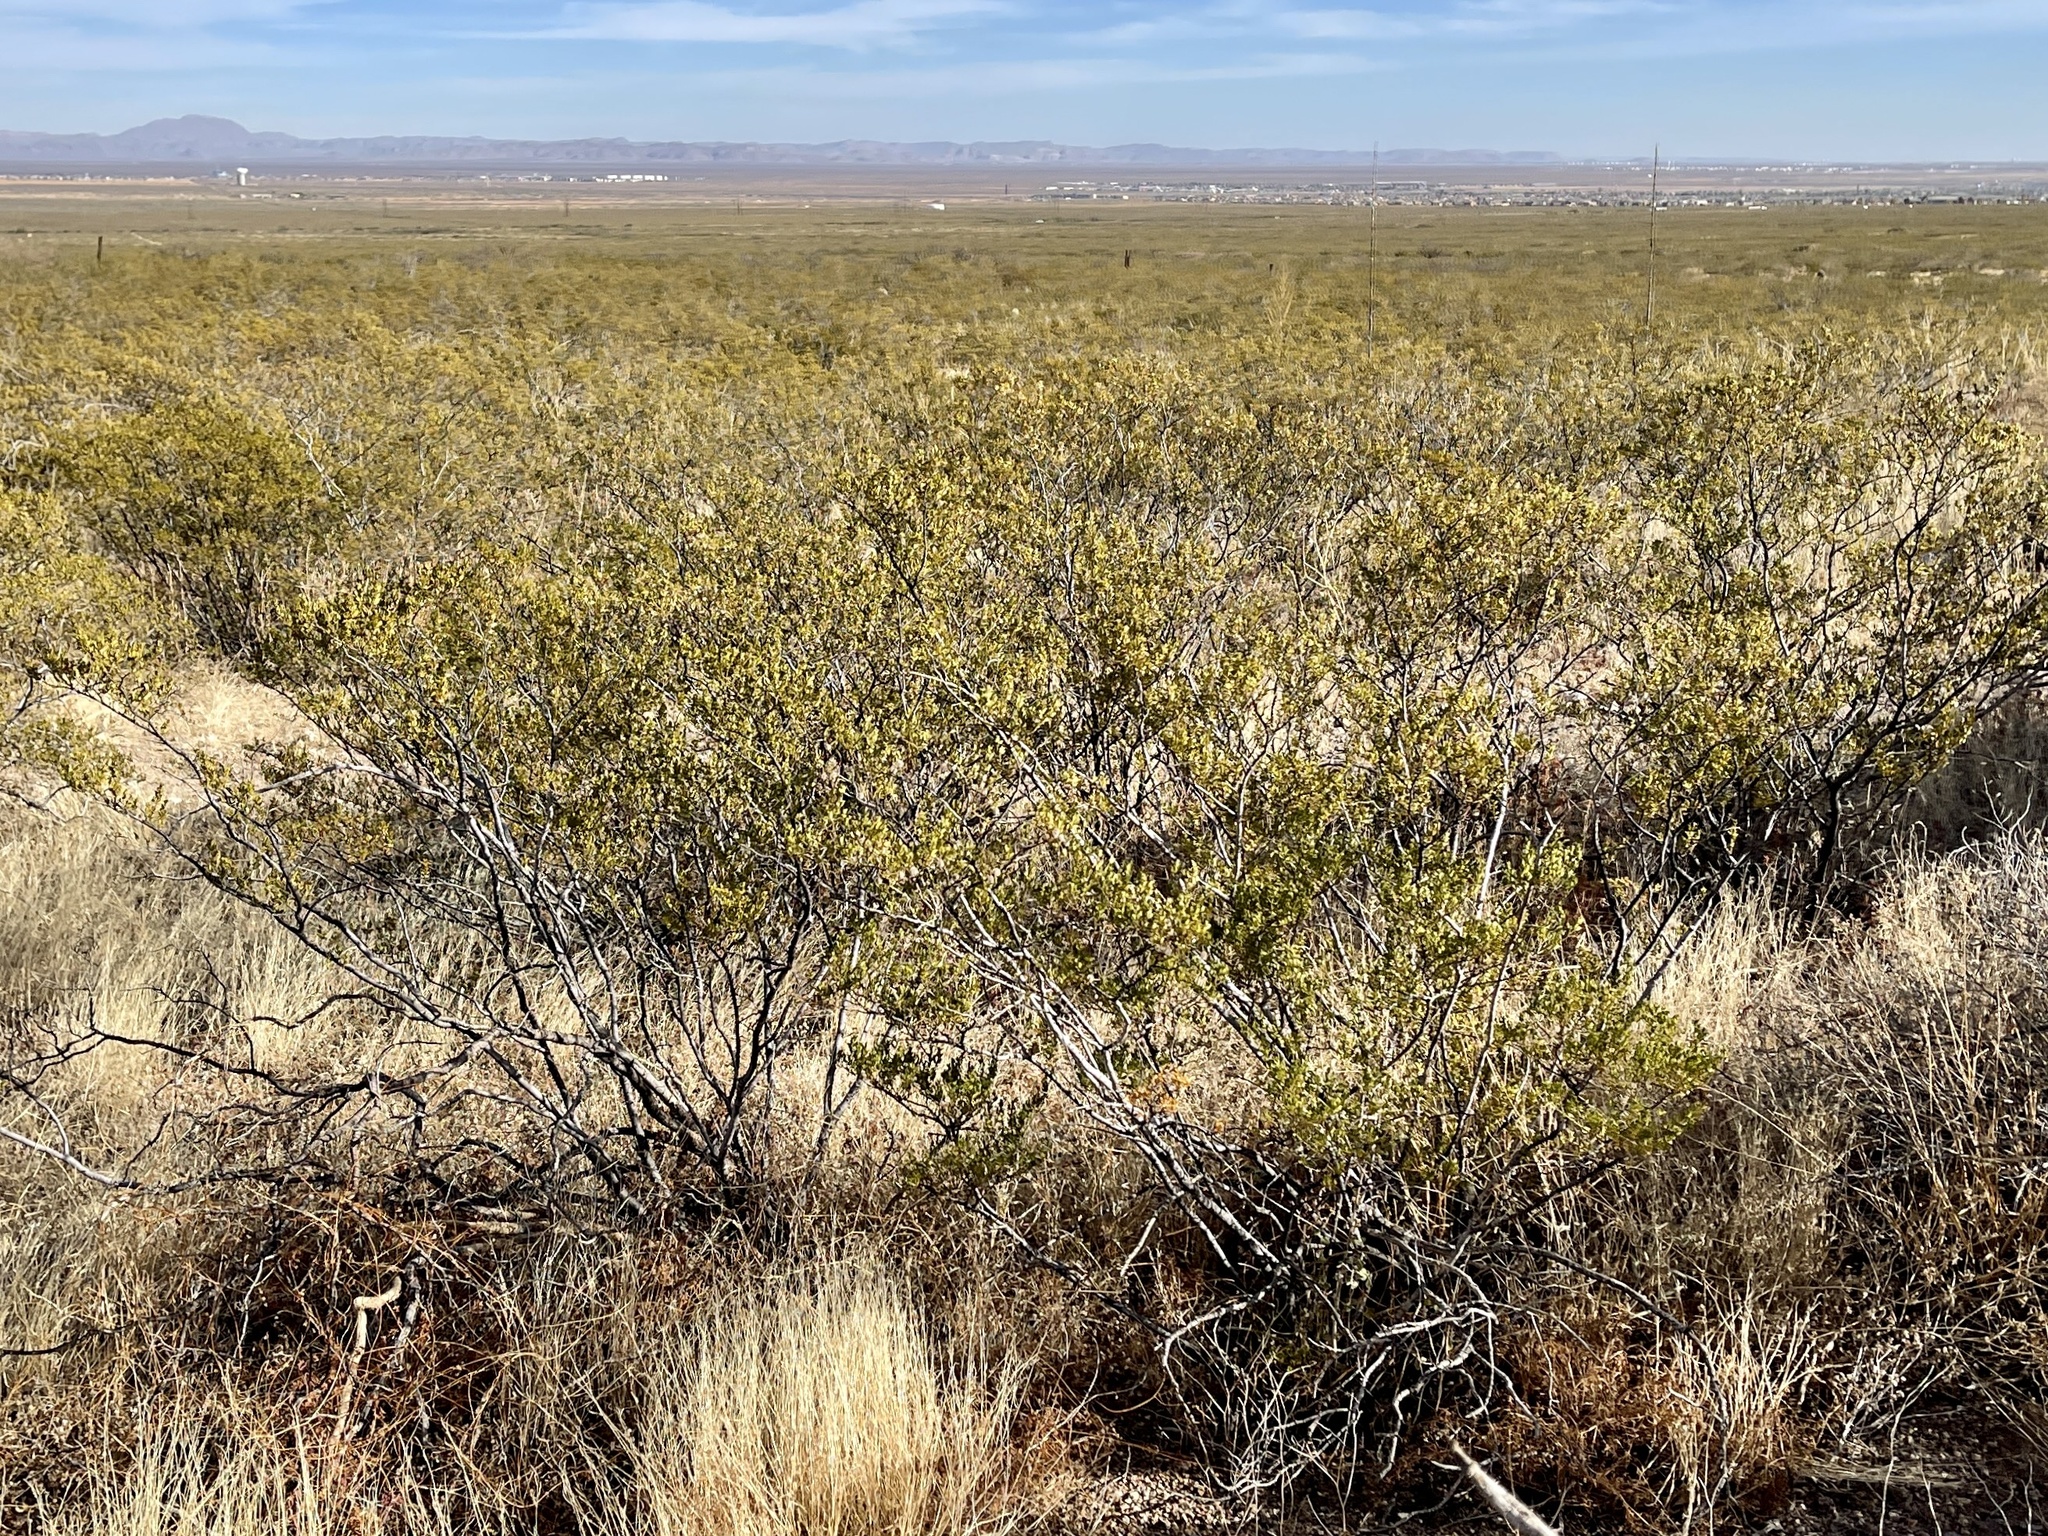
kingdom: Plantae
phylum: Tracheophyta
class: Magnoliopsida
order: Zygophyllales
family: Zygophyllaceae
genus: Larrea
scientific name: Larrea tridentata
